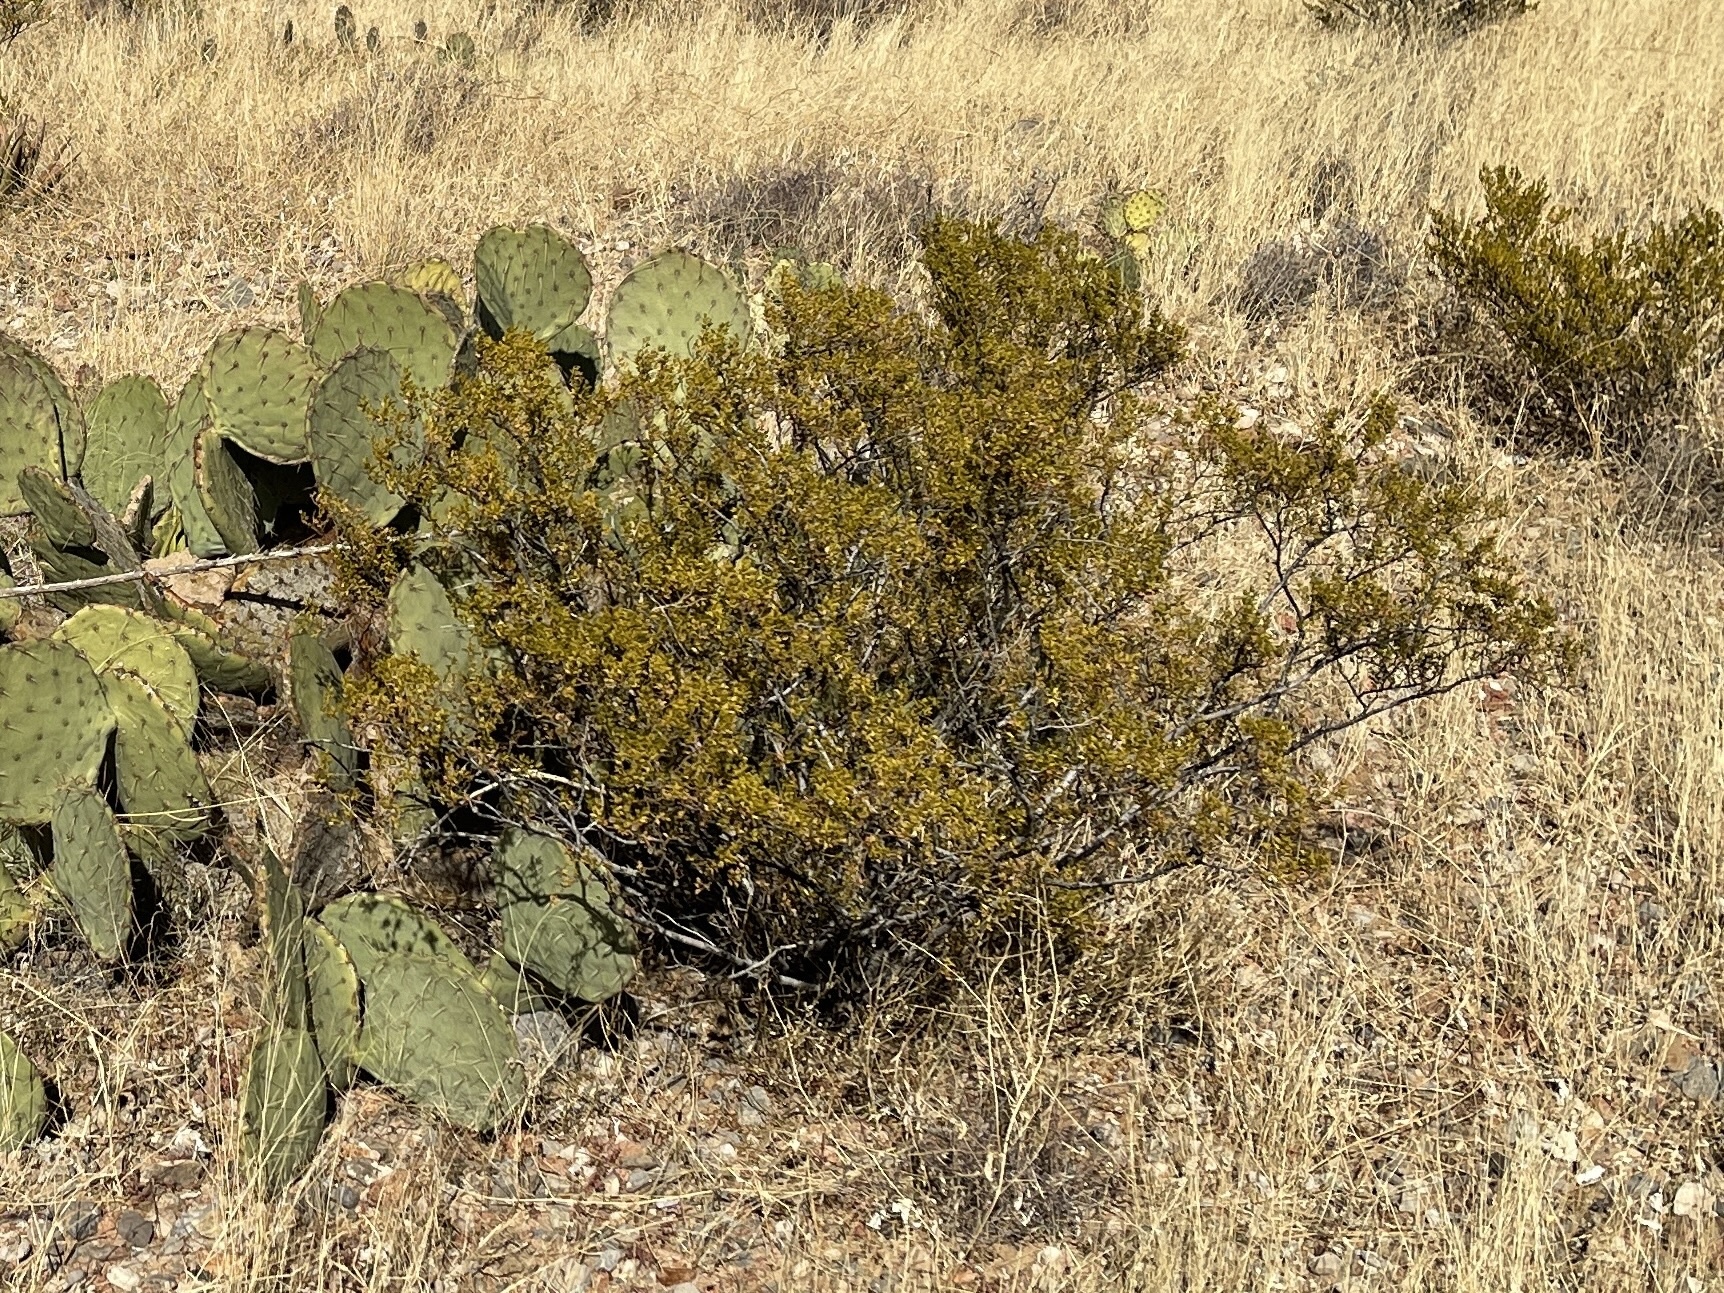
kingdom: Plantae
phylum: Tracheophyta
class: Magnoliopsida
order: Zygophyllales
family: Zygophyllaceae
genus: Larrea
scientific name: Larrea tridentata
